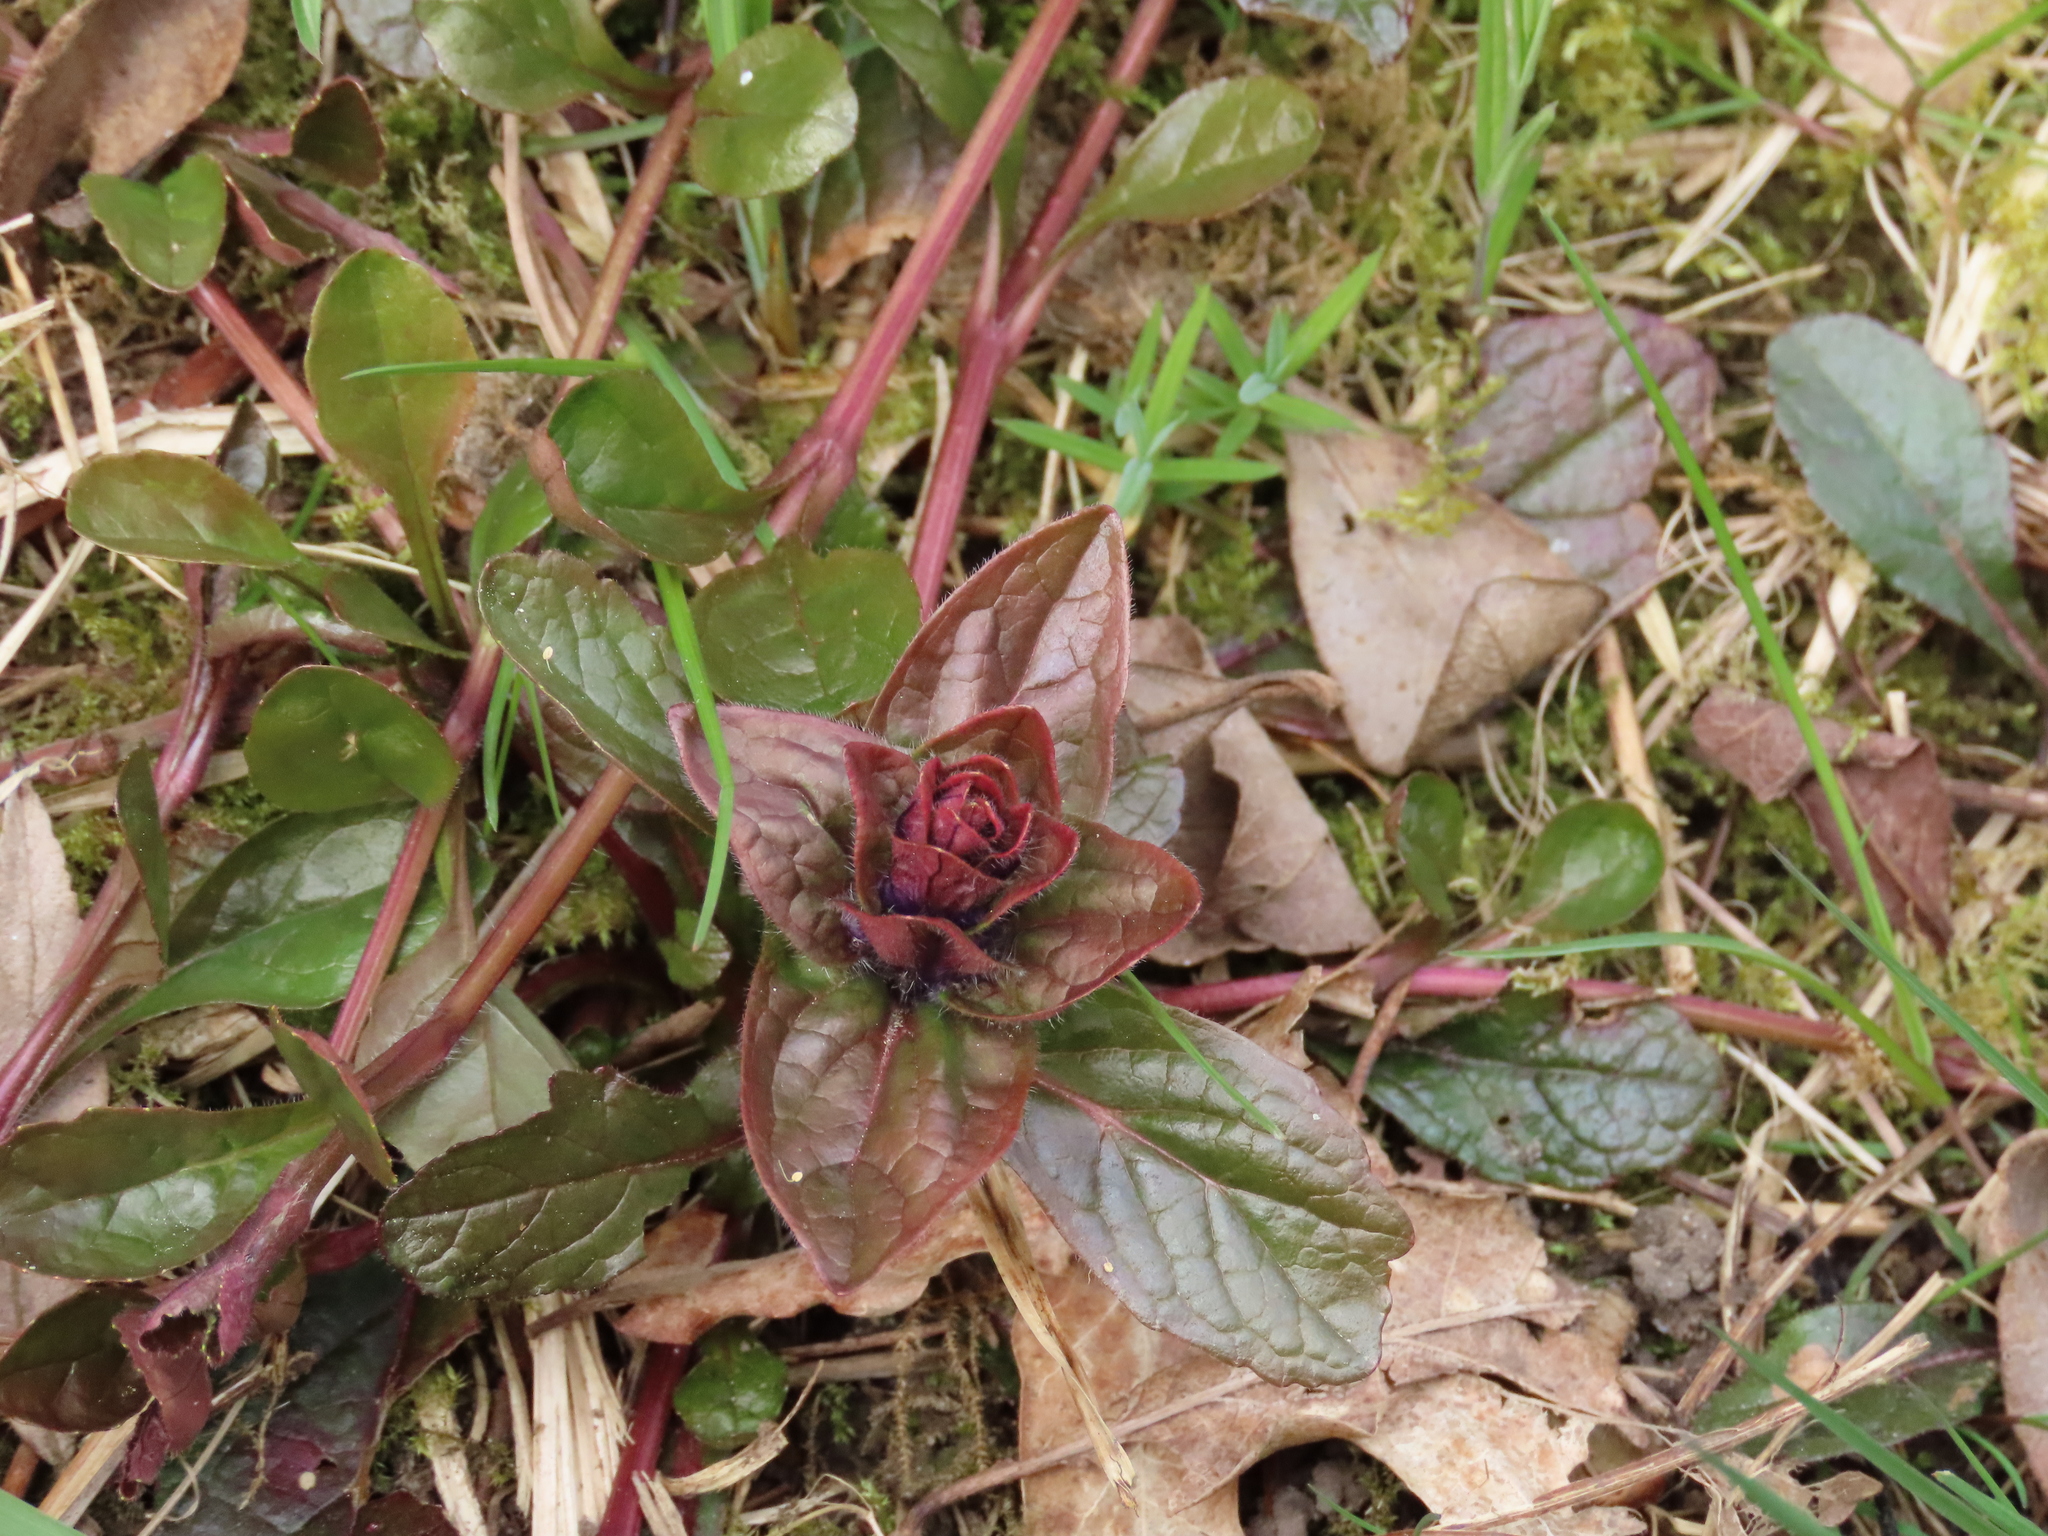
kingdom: Plantae
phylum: Tracheophyta
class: Magnoliopsida
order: Lamiales
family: Lamiaceae
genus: Ajuga
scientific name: Ajuga reptans
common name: Bugle
